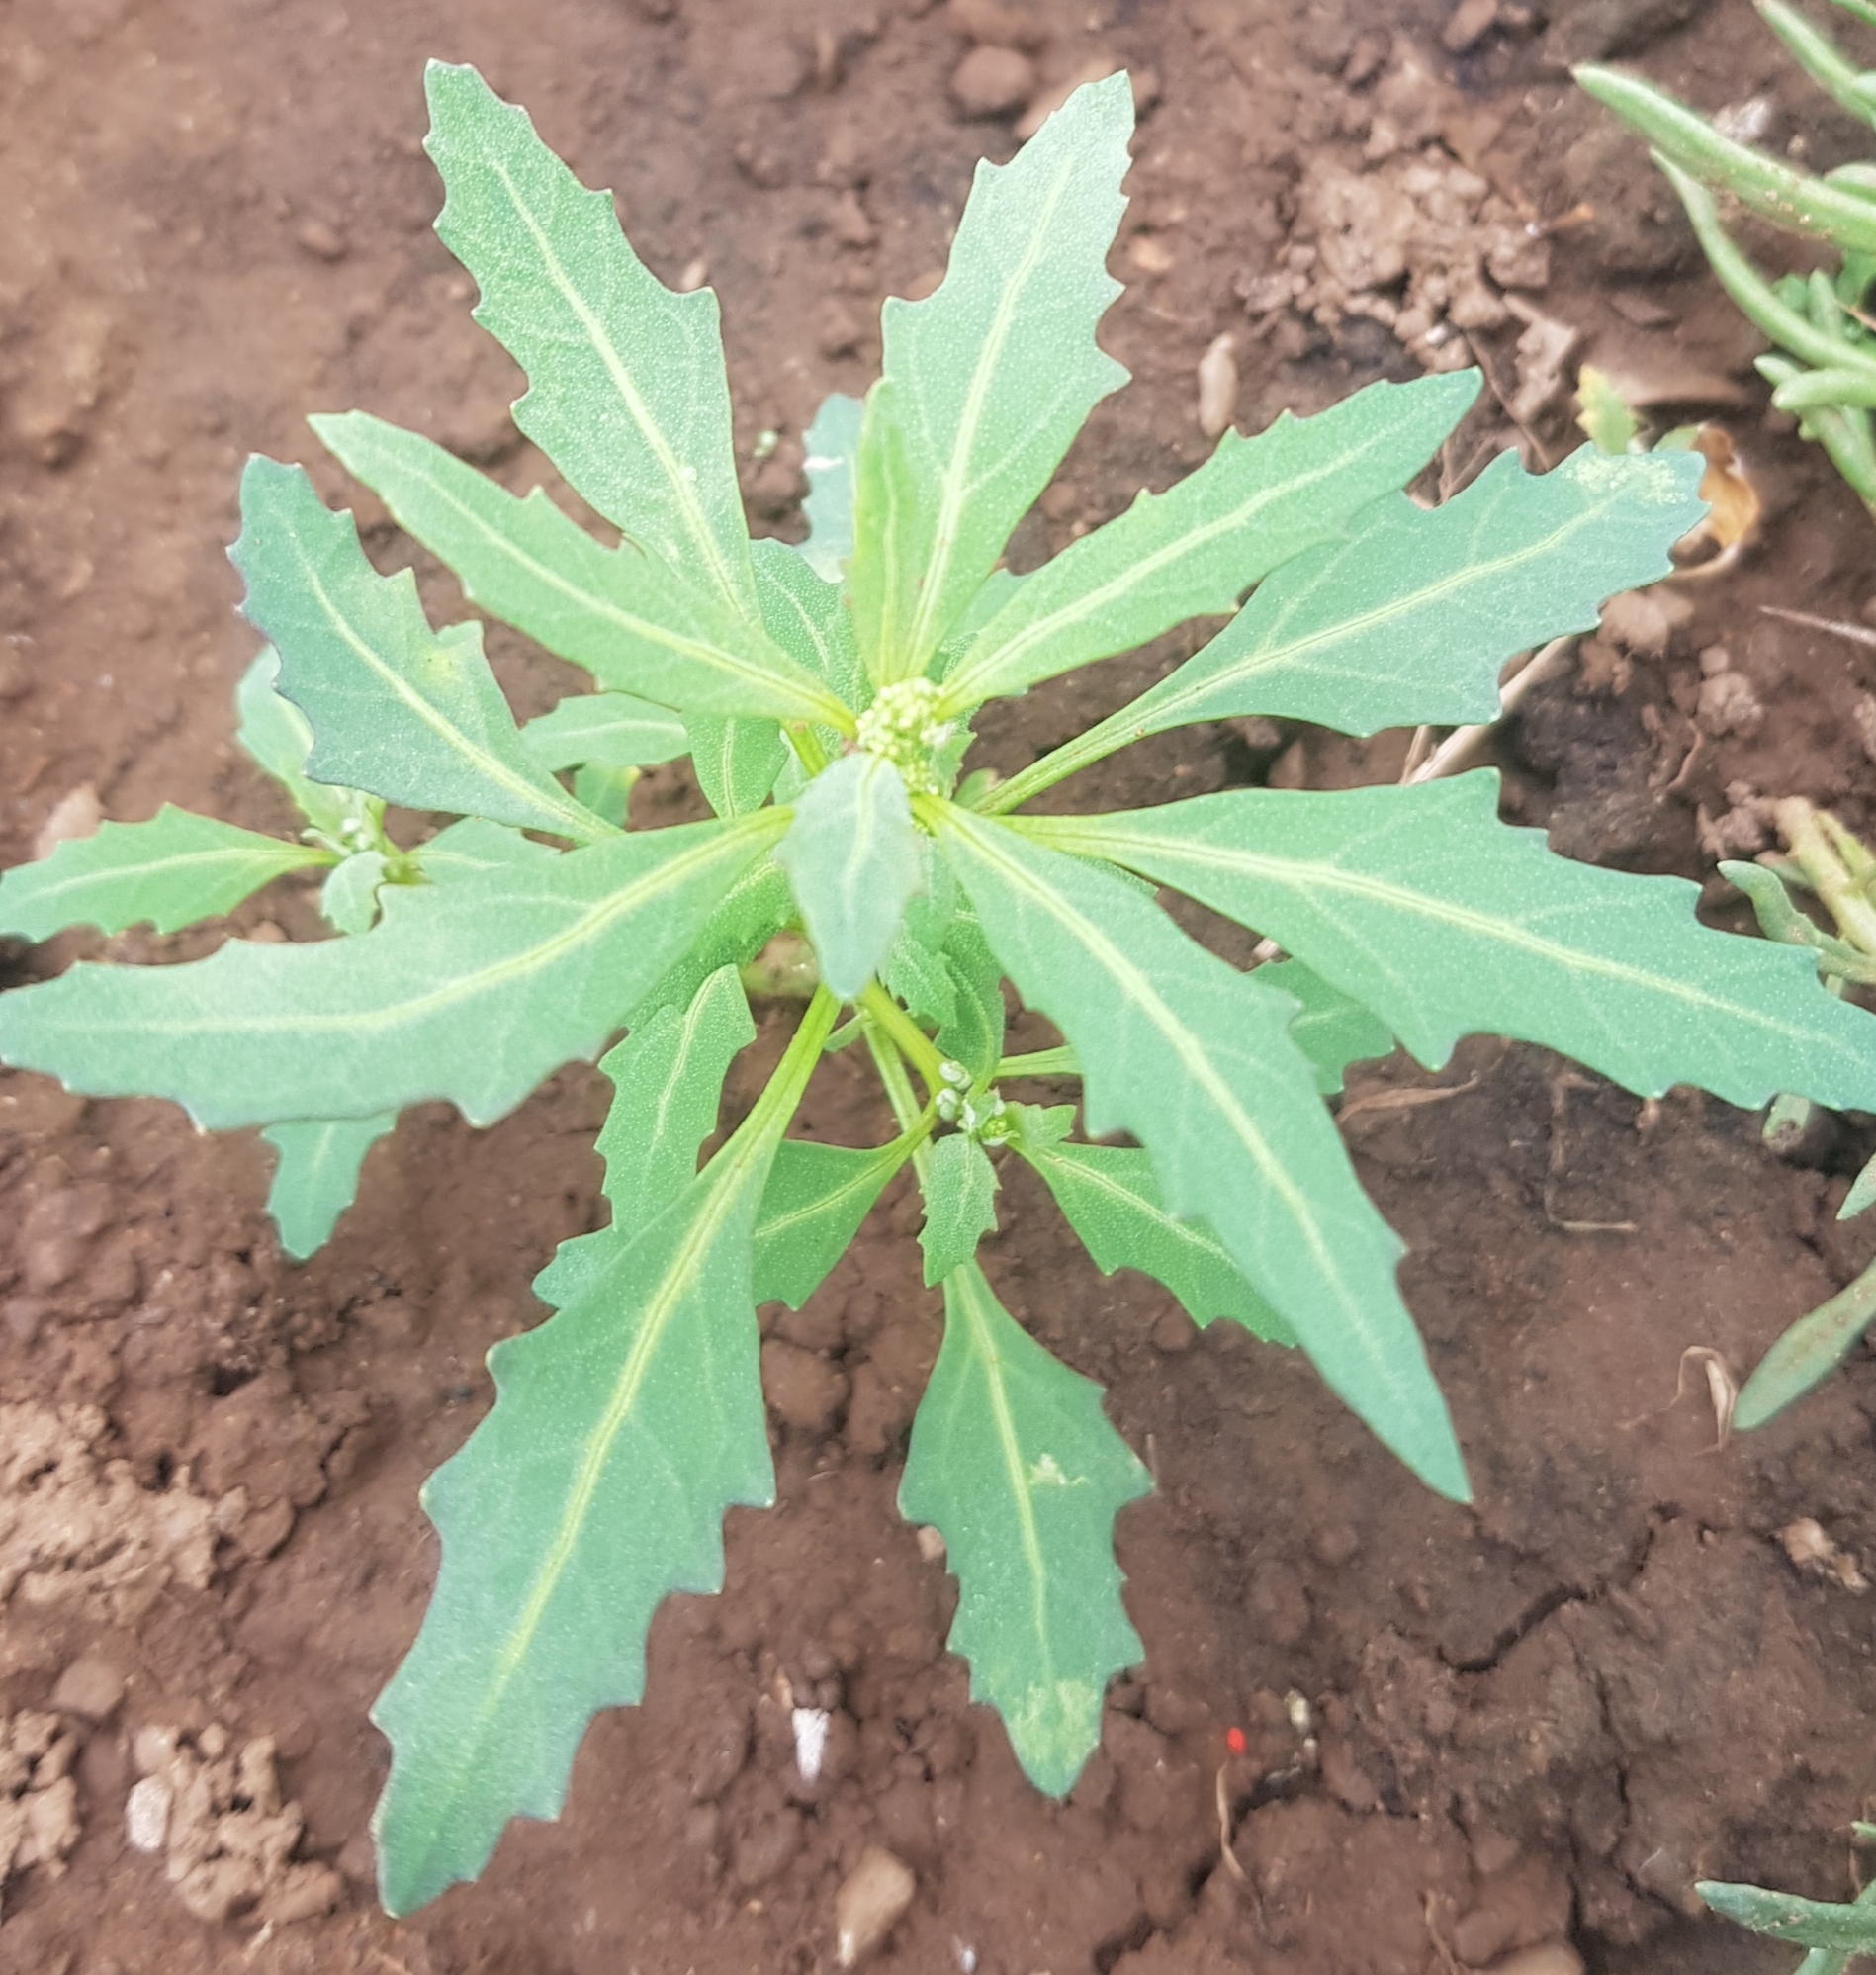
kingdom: Plantae
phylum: Tracheophyta
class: Magnoliopsida
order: Caryophyllales
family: Amaranthaceae
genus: Oxybasis
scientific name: Oxybasis glauca
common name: Glaucous goosefoot
